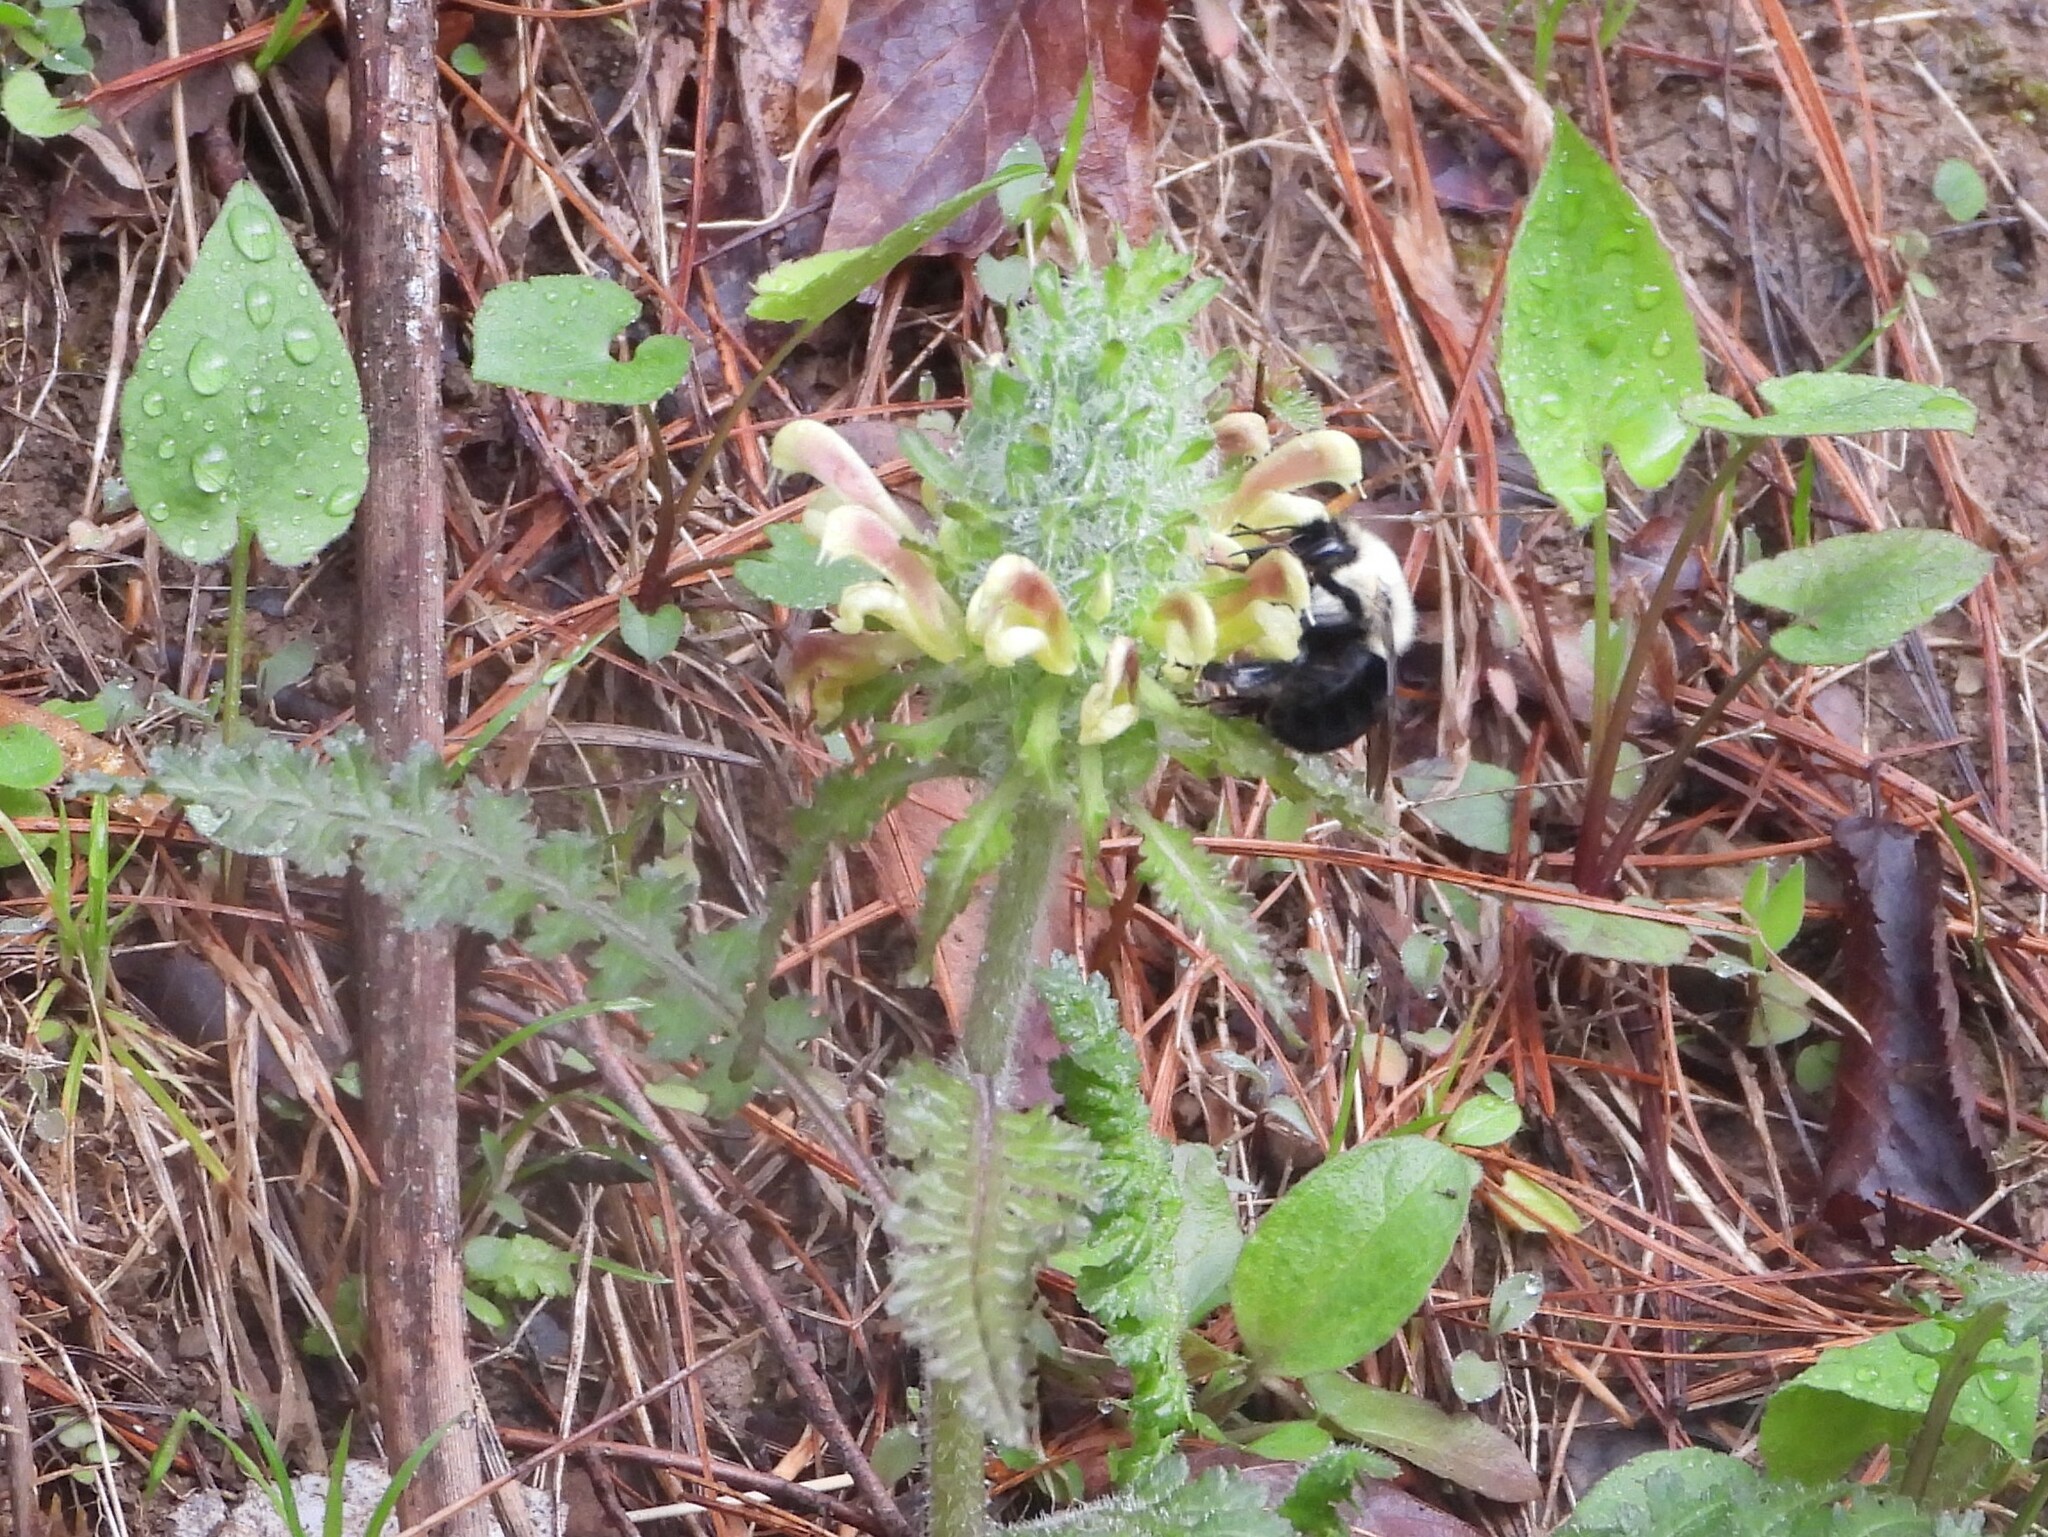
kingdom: Animalia
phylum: Arthropoda
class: Insecta
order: Hymenoptera
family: Apidae
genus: Bombus
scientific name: Bombus bimaculatus
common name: Two-spotted bumble bee
